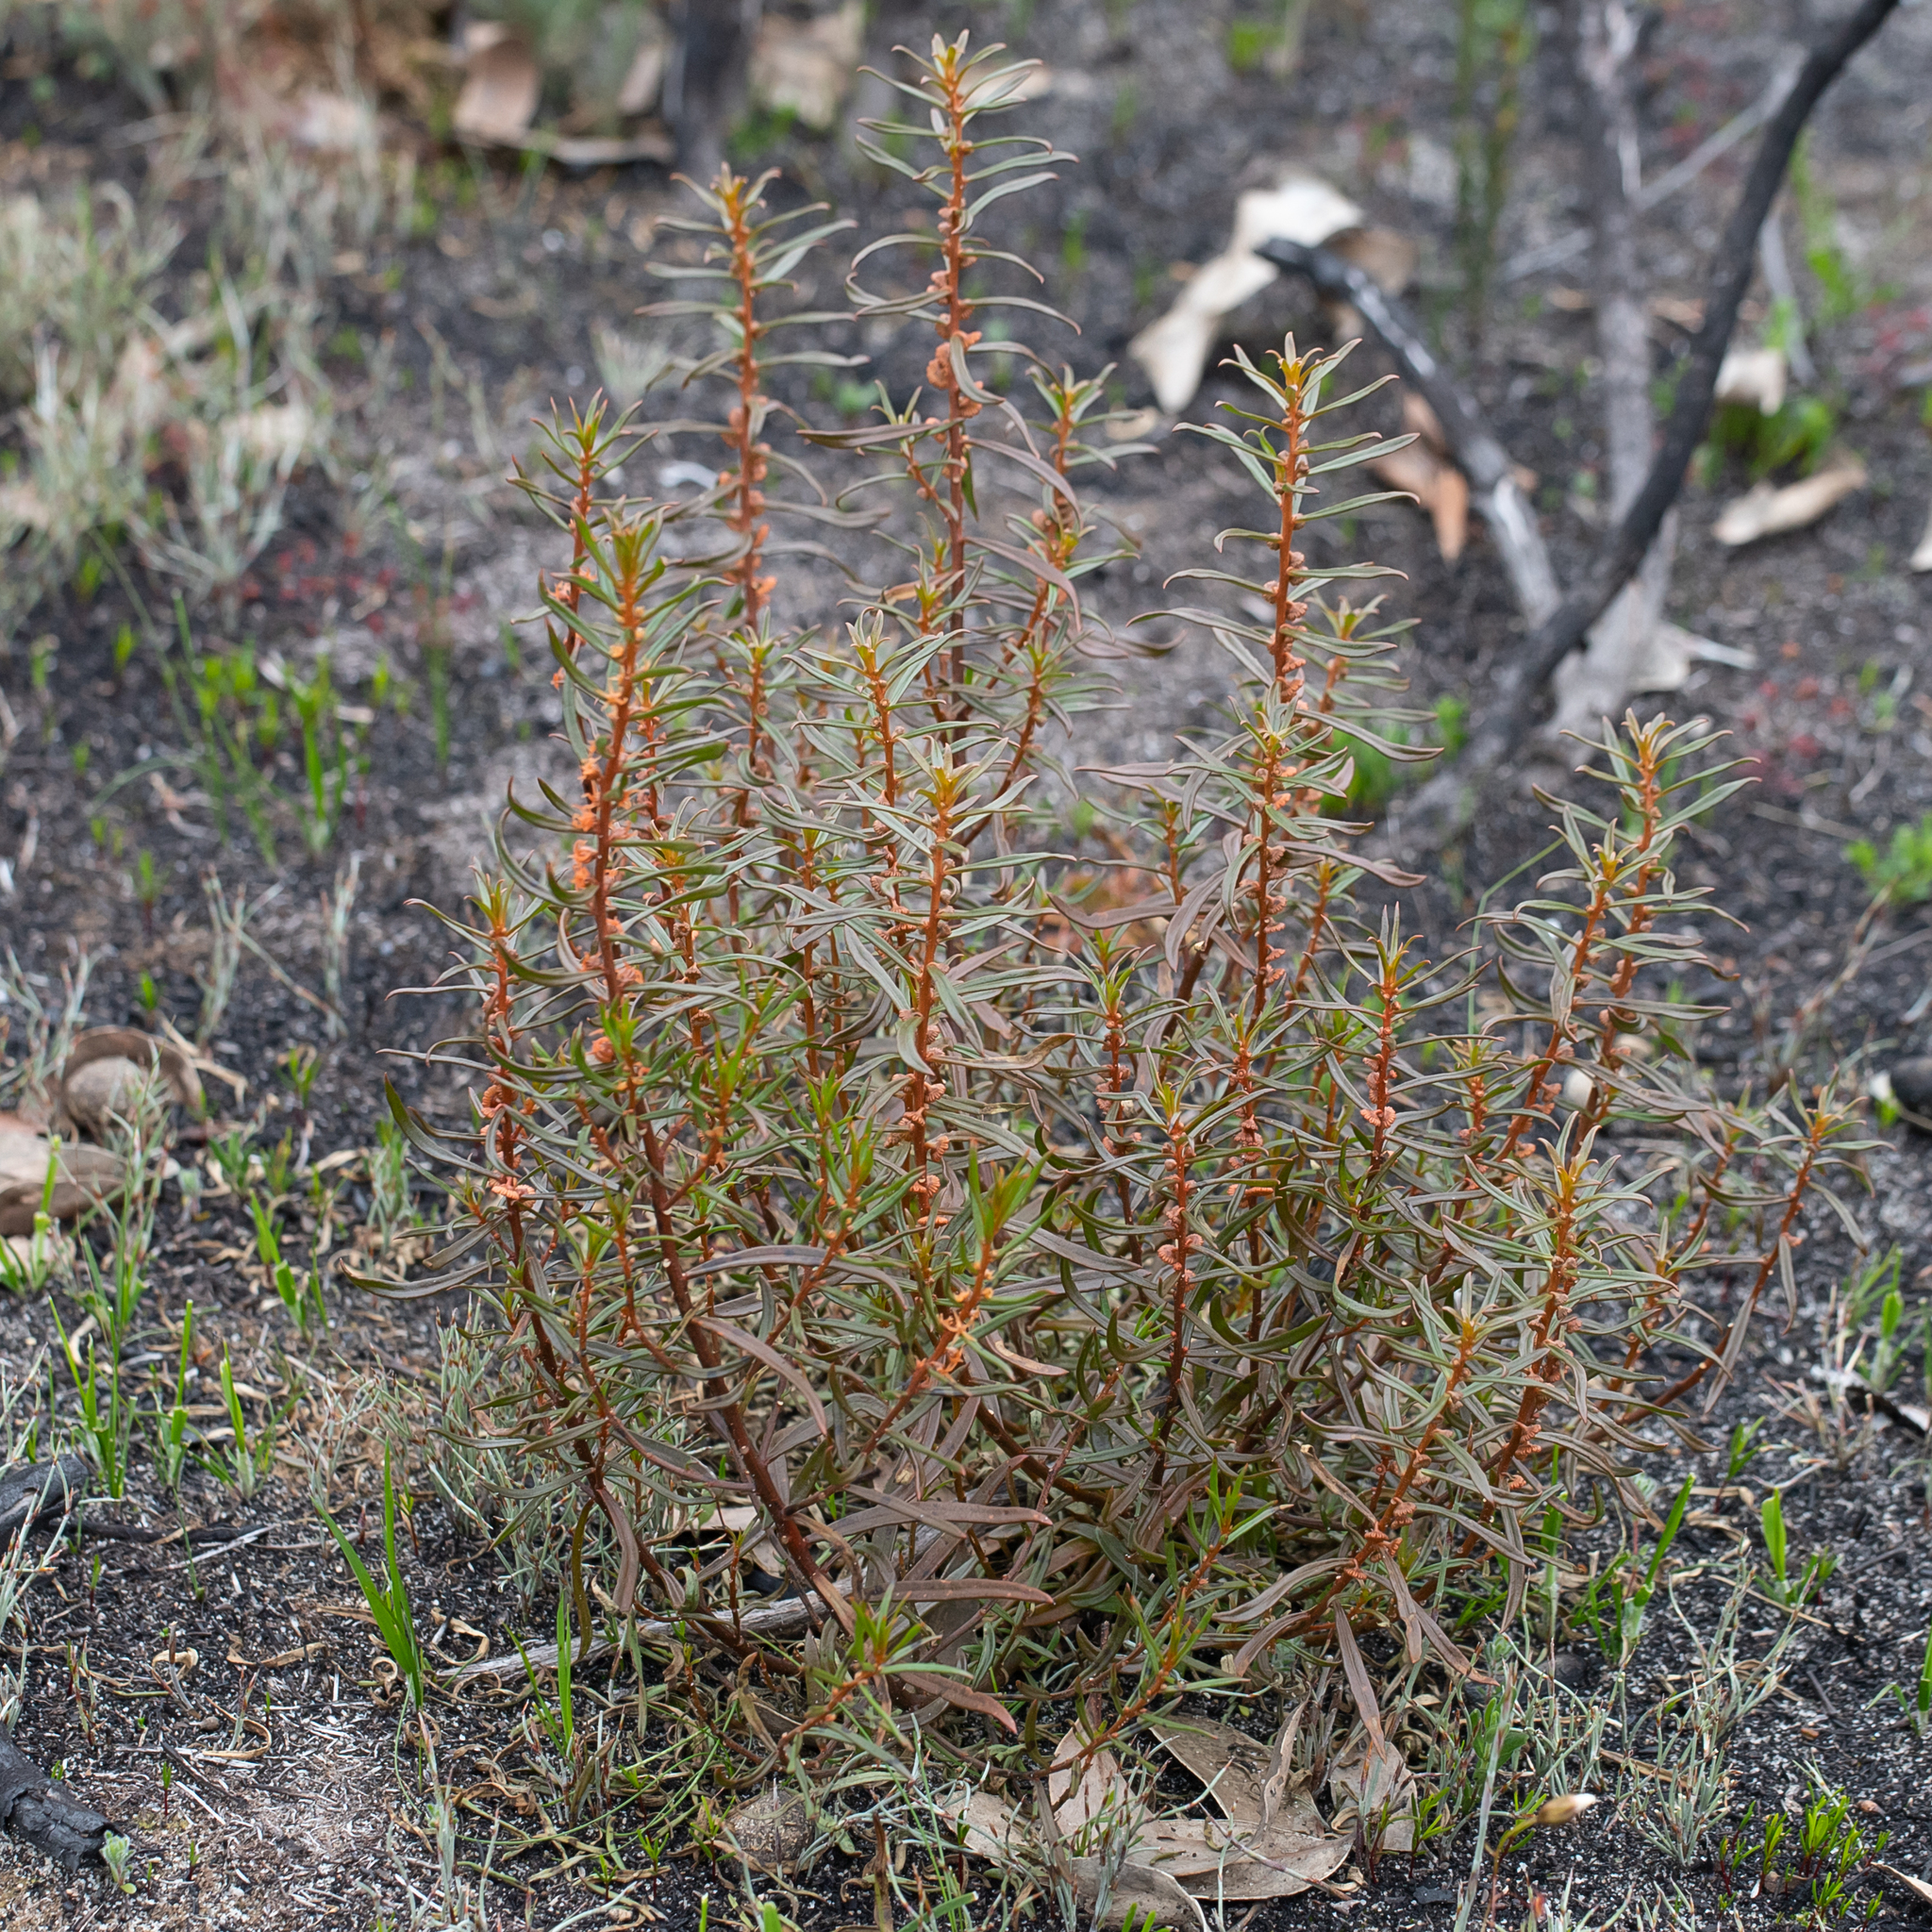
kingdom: Plantae
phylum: Tracheophyta
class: Magnoliopsida
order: Brassicales
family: Gyrostemonaceae
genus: Gyrostemon
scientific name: Gyrostemon australasicus
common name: Wheelfruit
